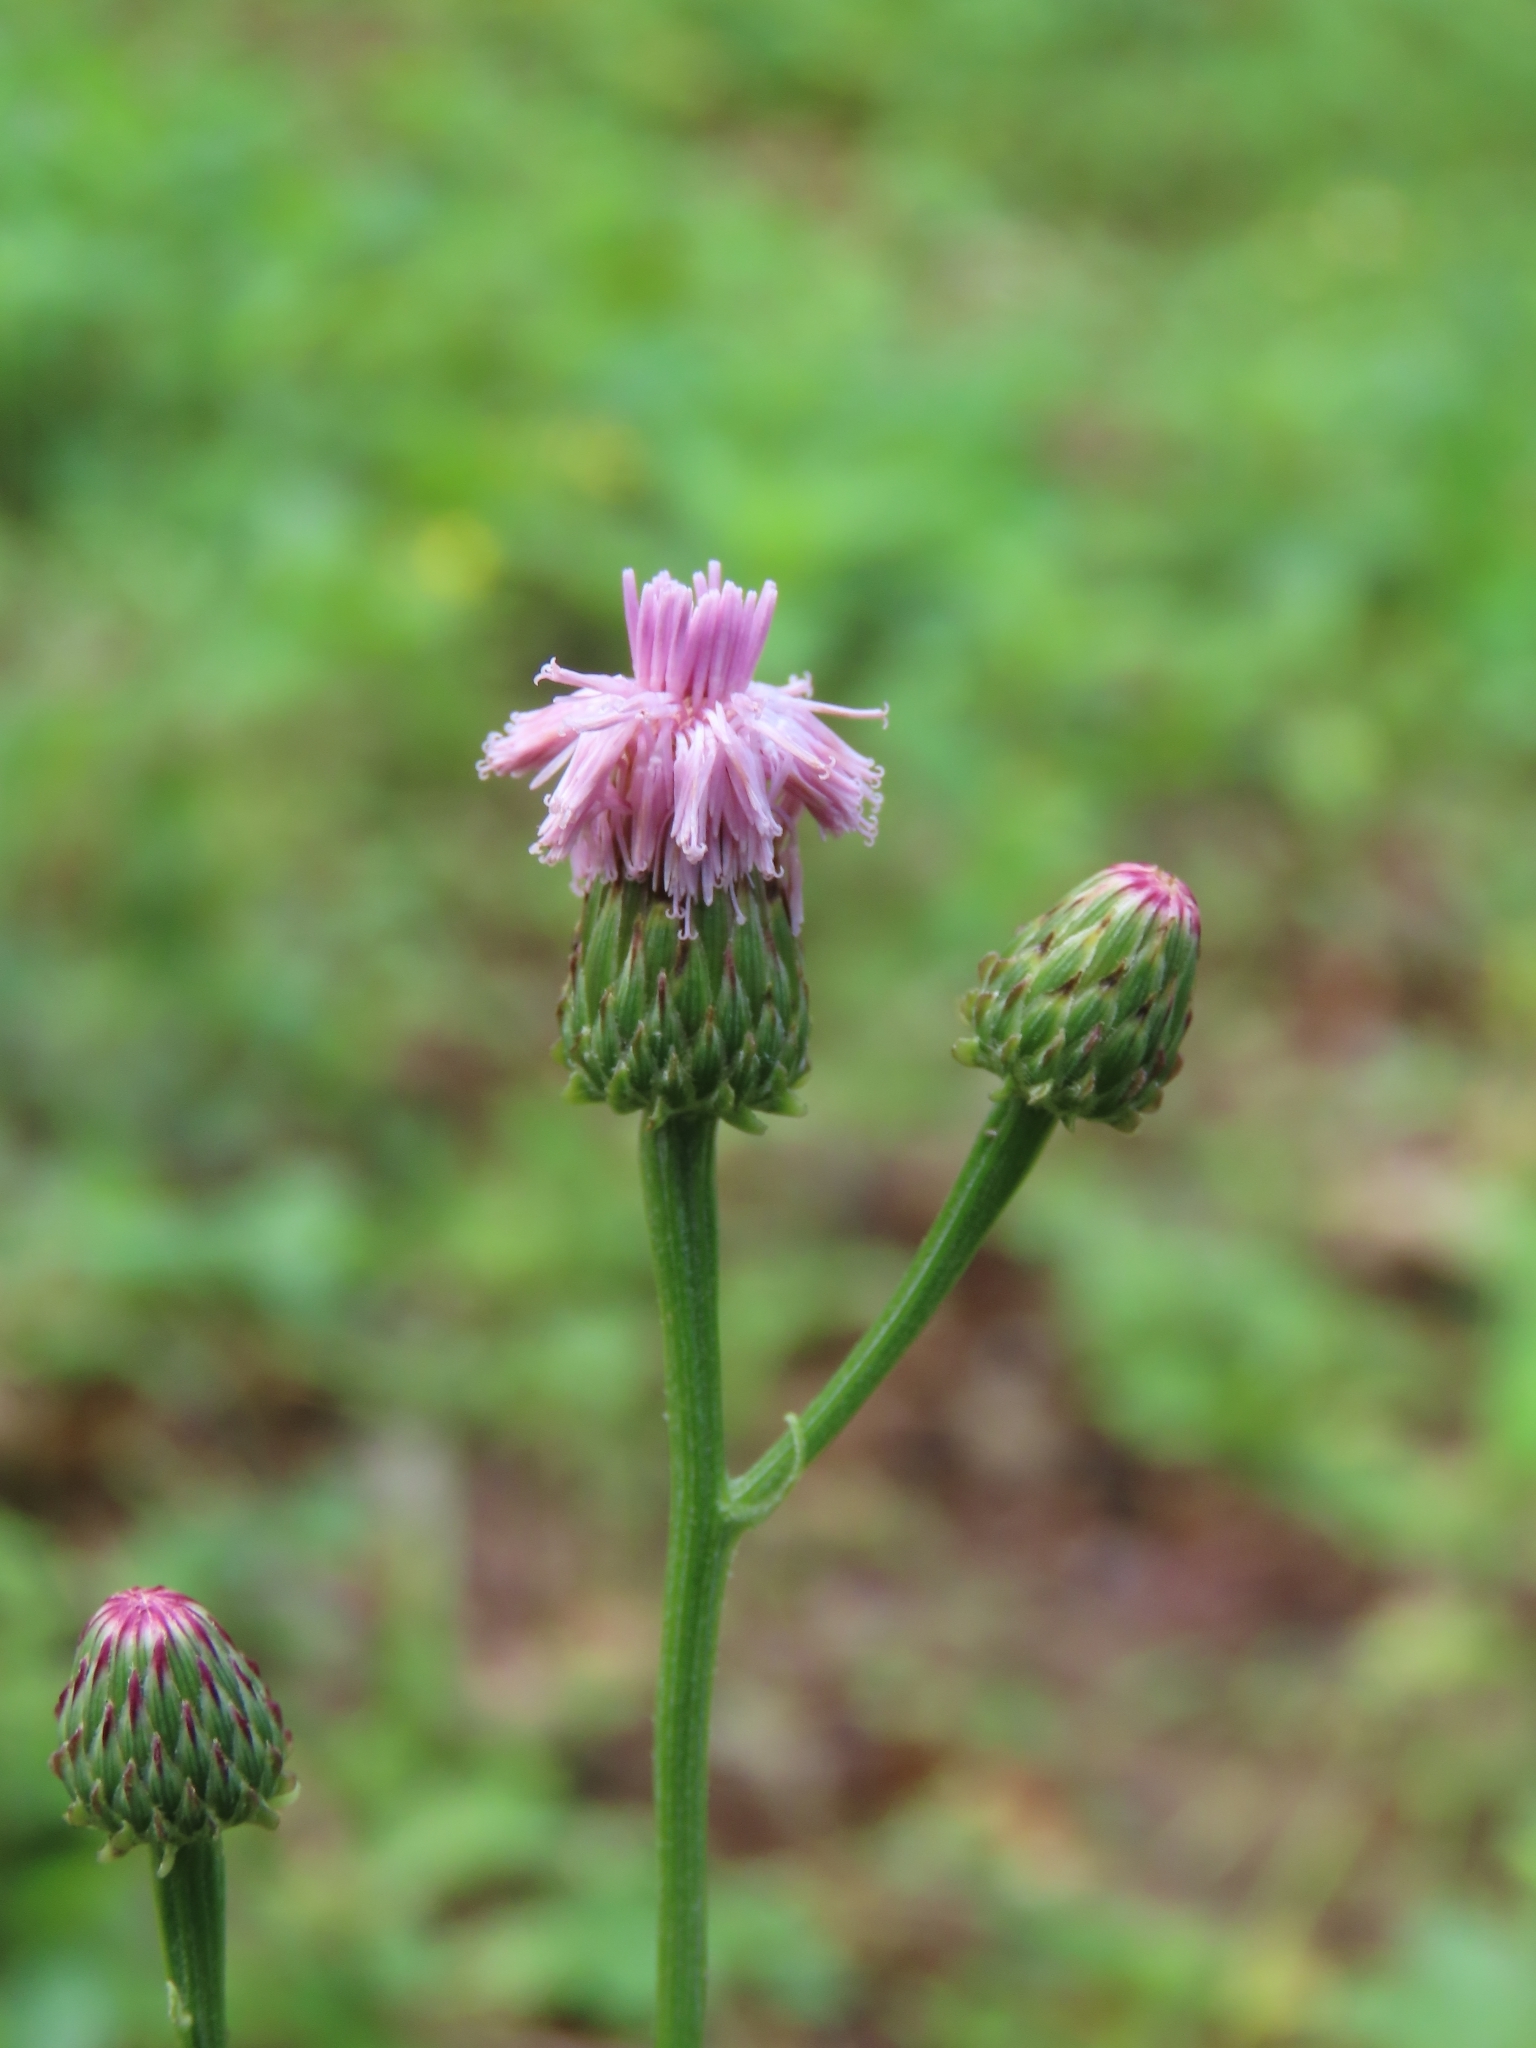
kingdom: Plantae
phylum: Tracheophyta
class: Magnoliopsida
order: Asterales
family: Asteraceae
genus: Saussurea
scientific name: Saussurea lyrata
